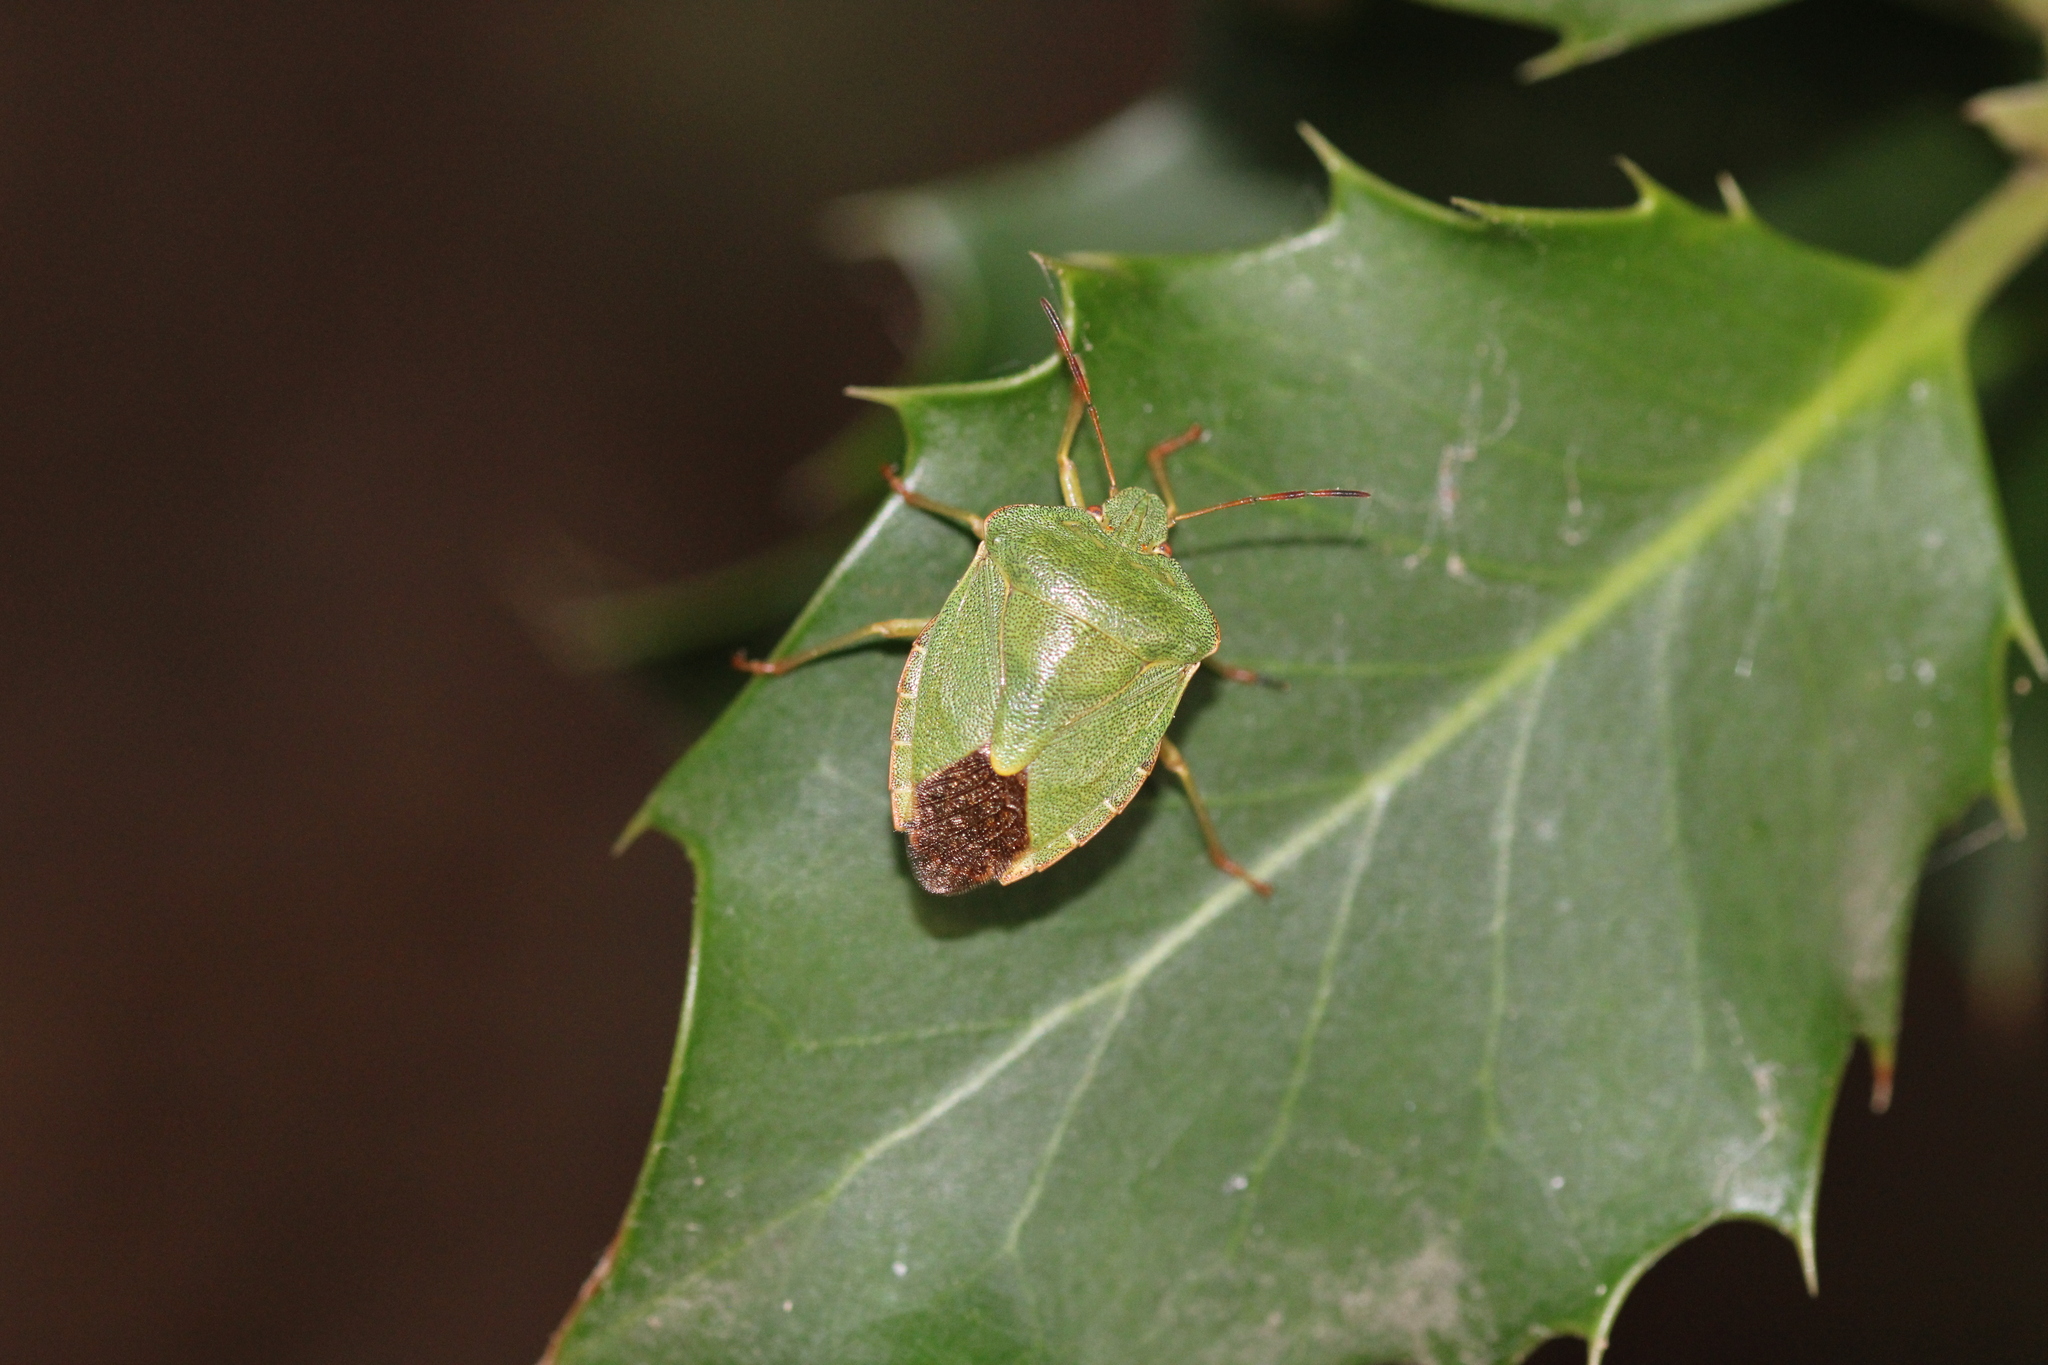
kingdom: Animalia
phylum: Arthropoda
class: Insecta
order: Hemiptera
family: Pentatomidae
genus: Palomena
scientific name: Palomena prasina
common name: Green shieldbug
